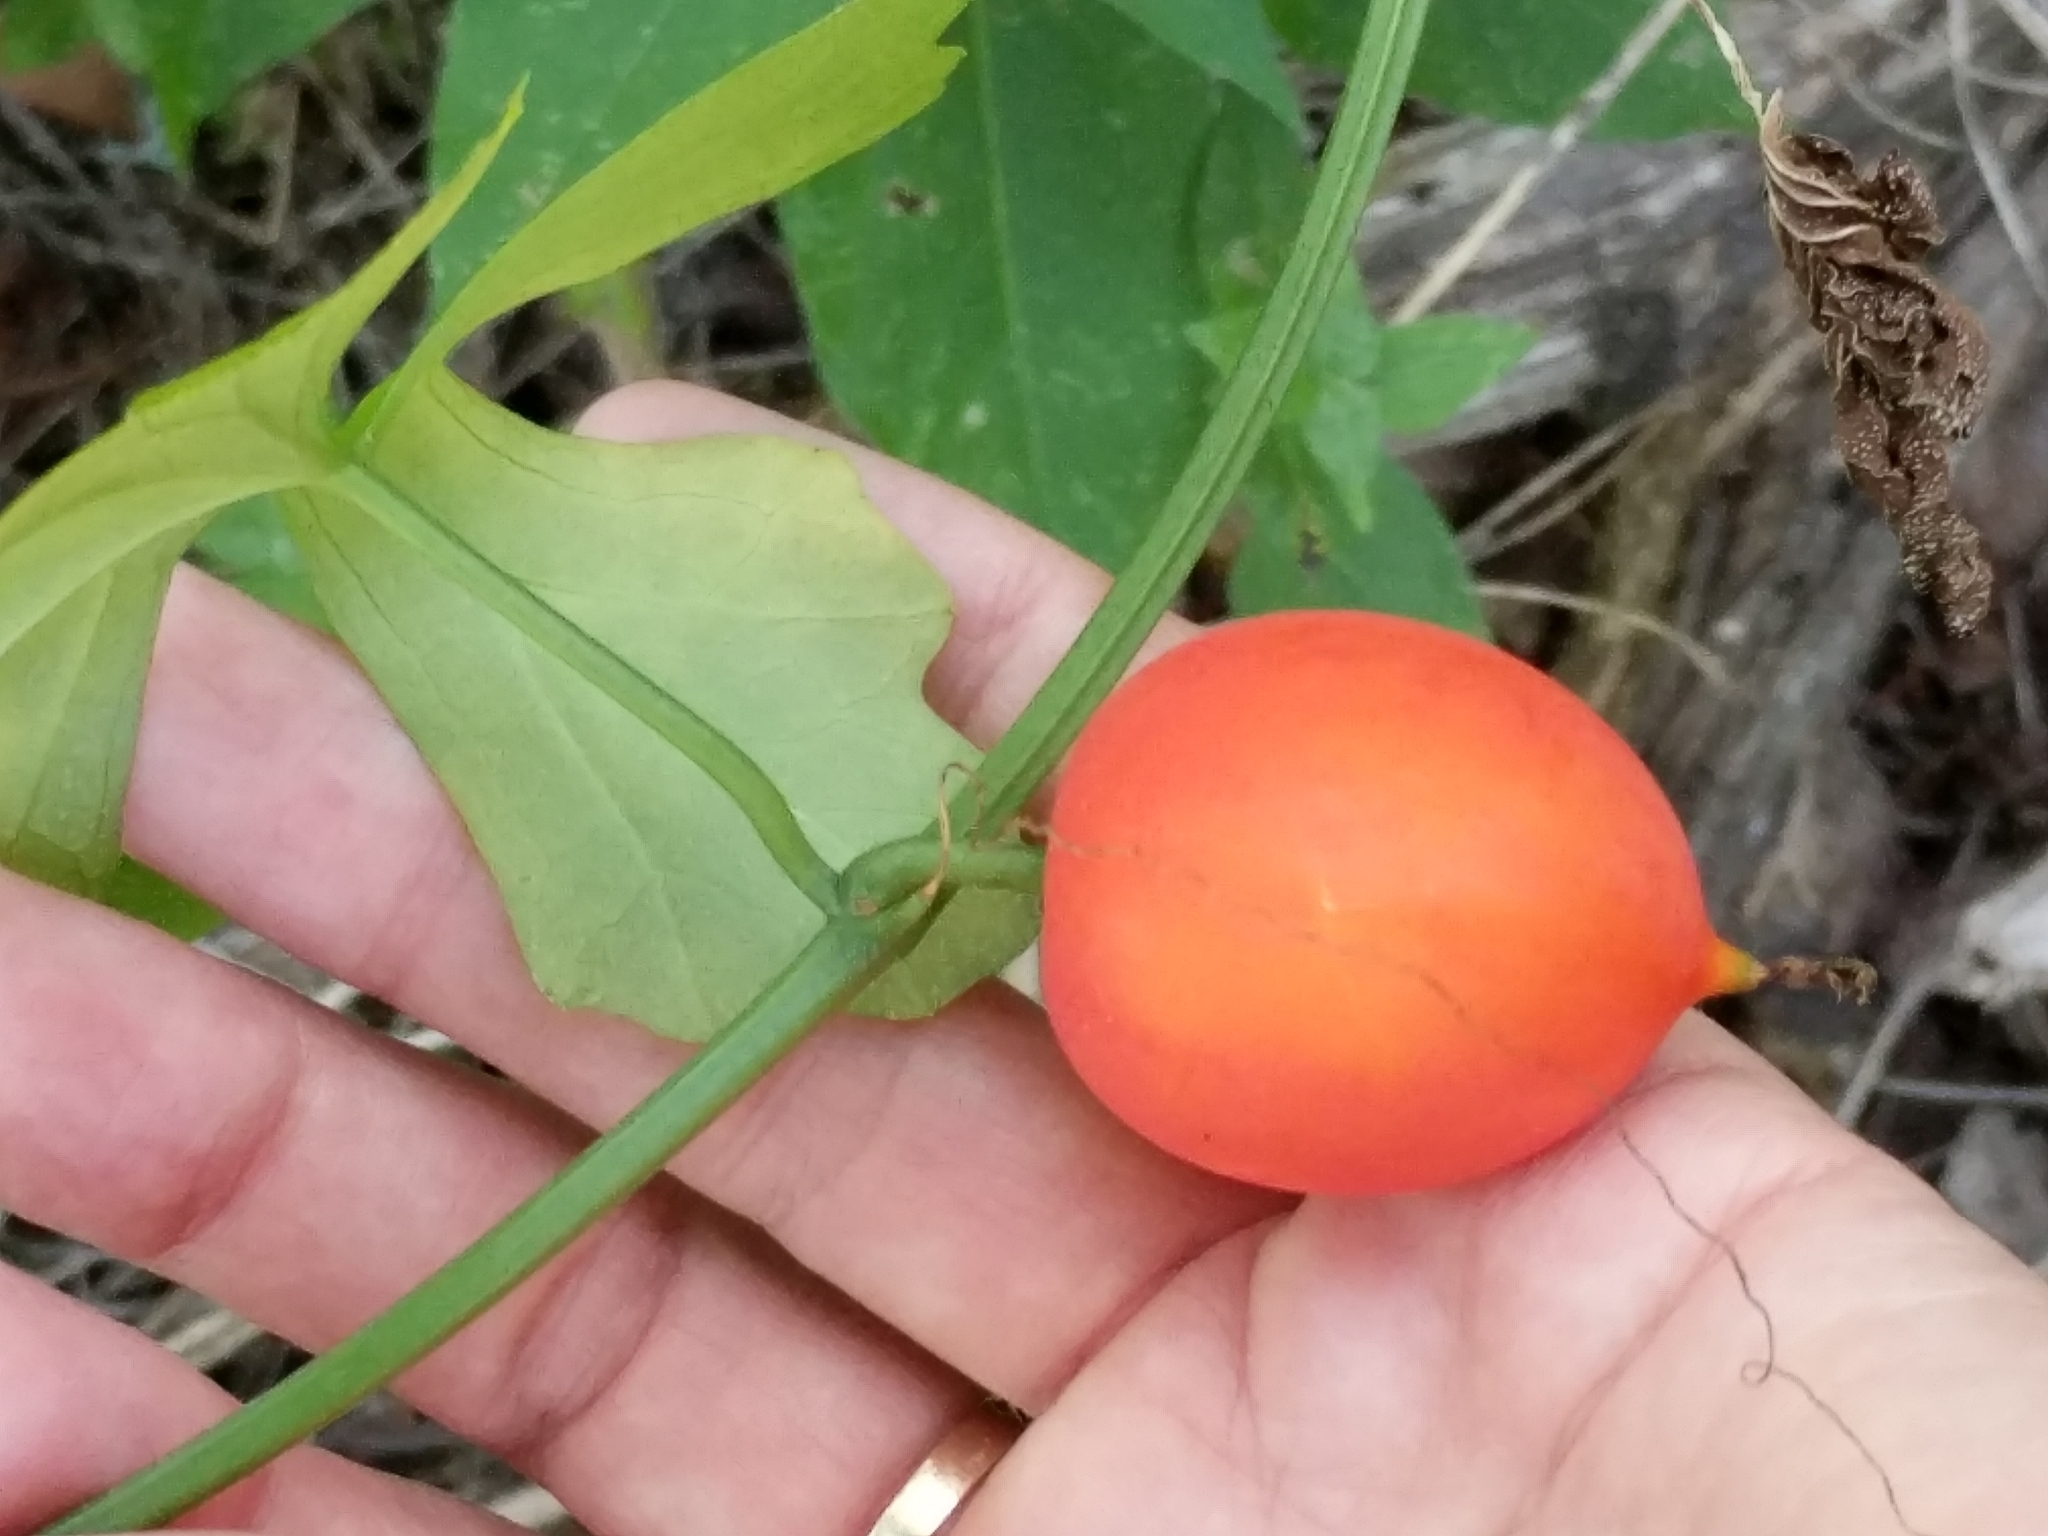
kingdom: Plantae
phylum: Tracheophyta
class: Magnoliopsida
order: Cucurbitales
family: Cucurbitaceae
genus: Ibervillea
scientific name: Ibervillea lindheimeri
